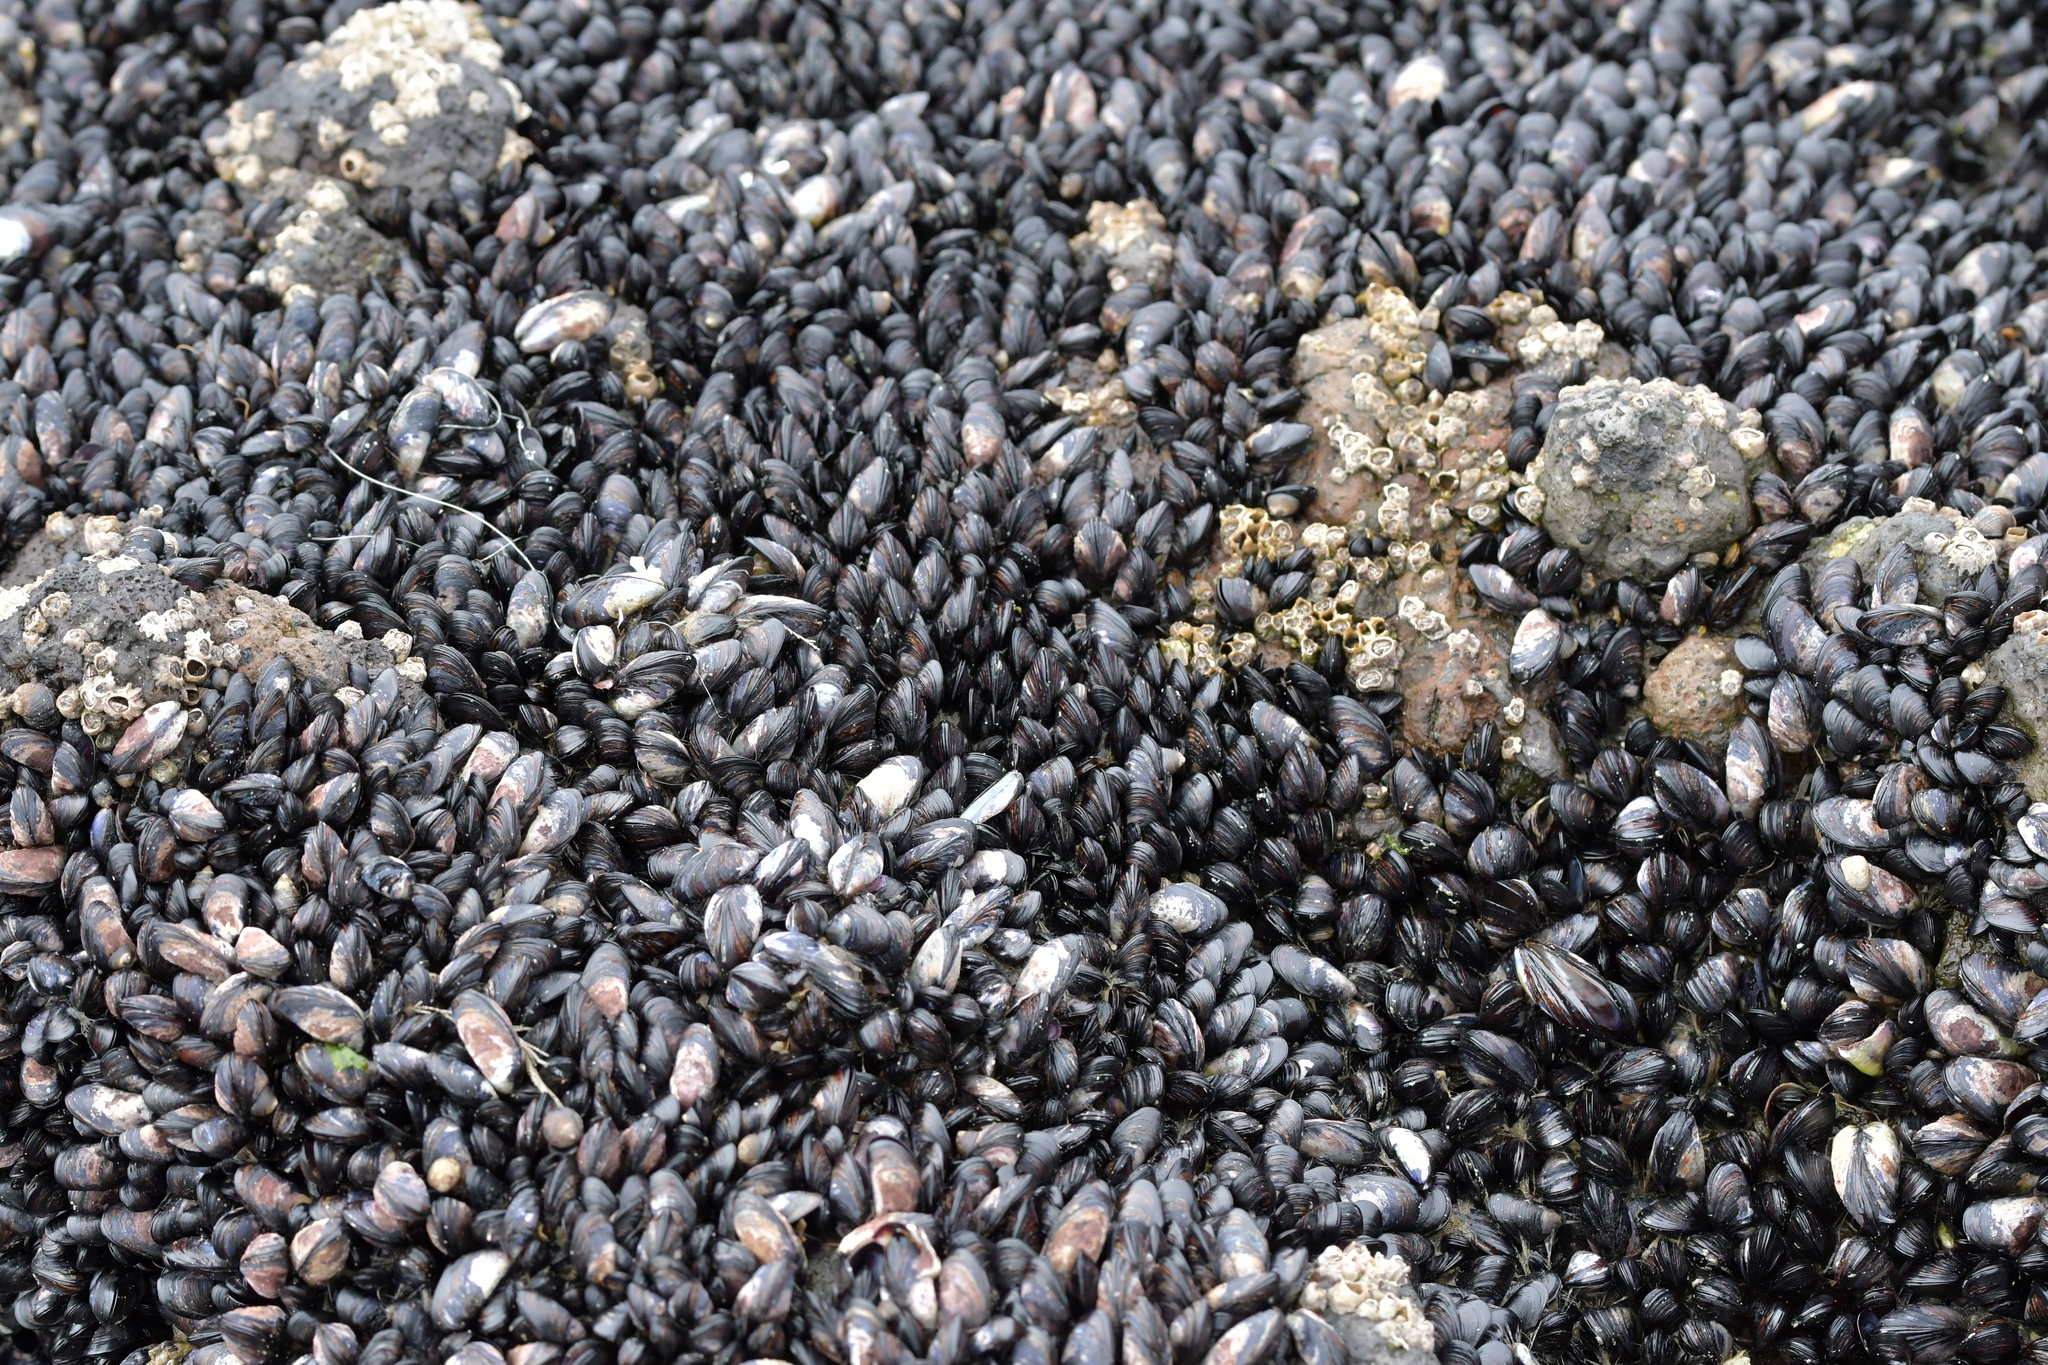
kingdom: Animalia
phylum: Mollusca
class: Bivalvia
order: Mytilida
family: Mytilidae
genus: Xenostrobus
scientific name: Xenostrobus neozelanicus
